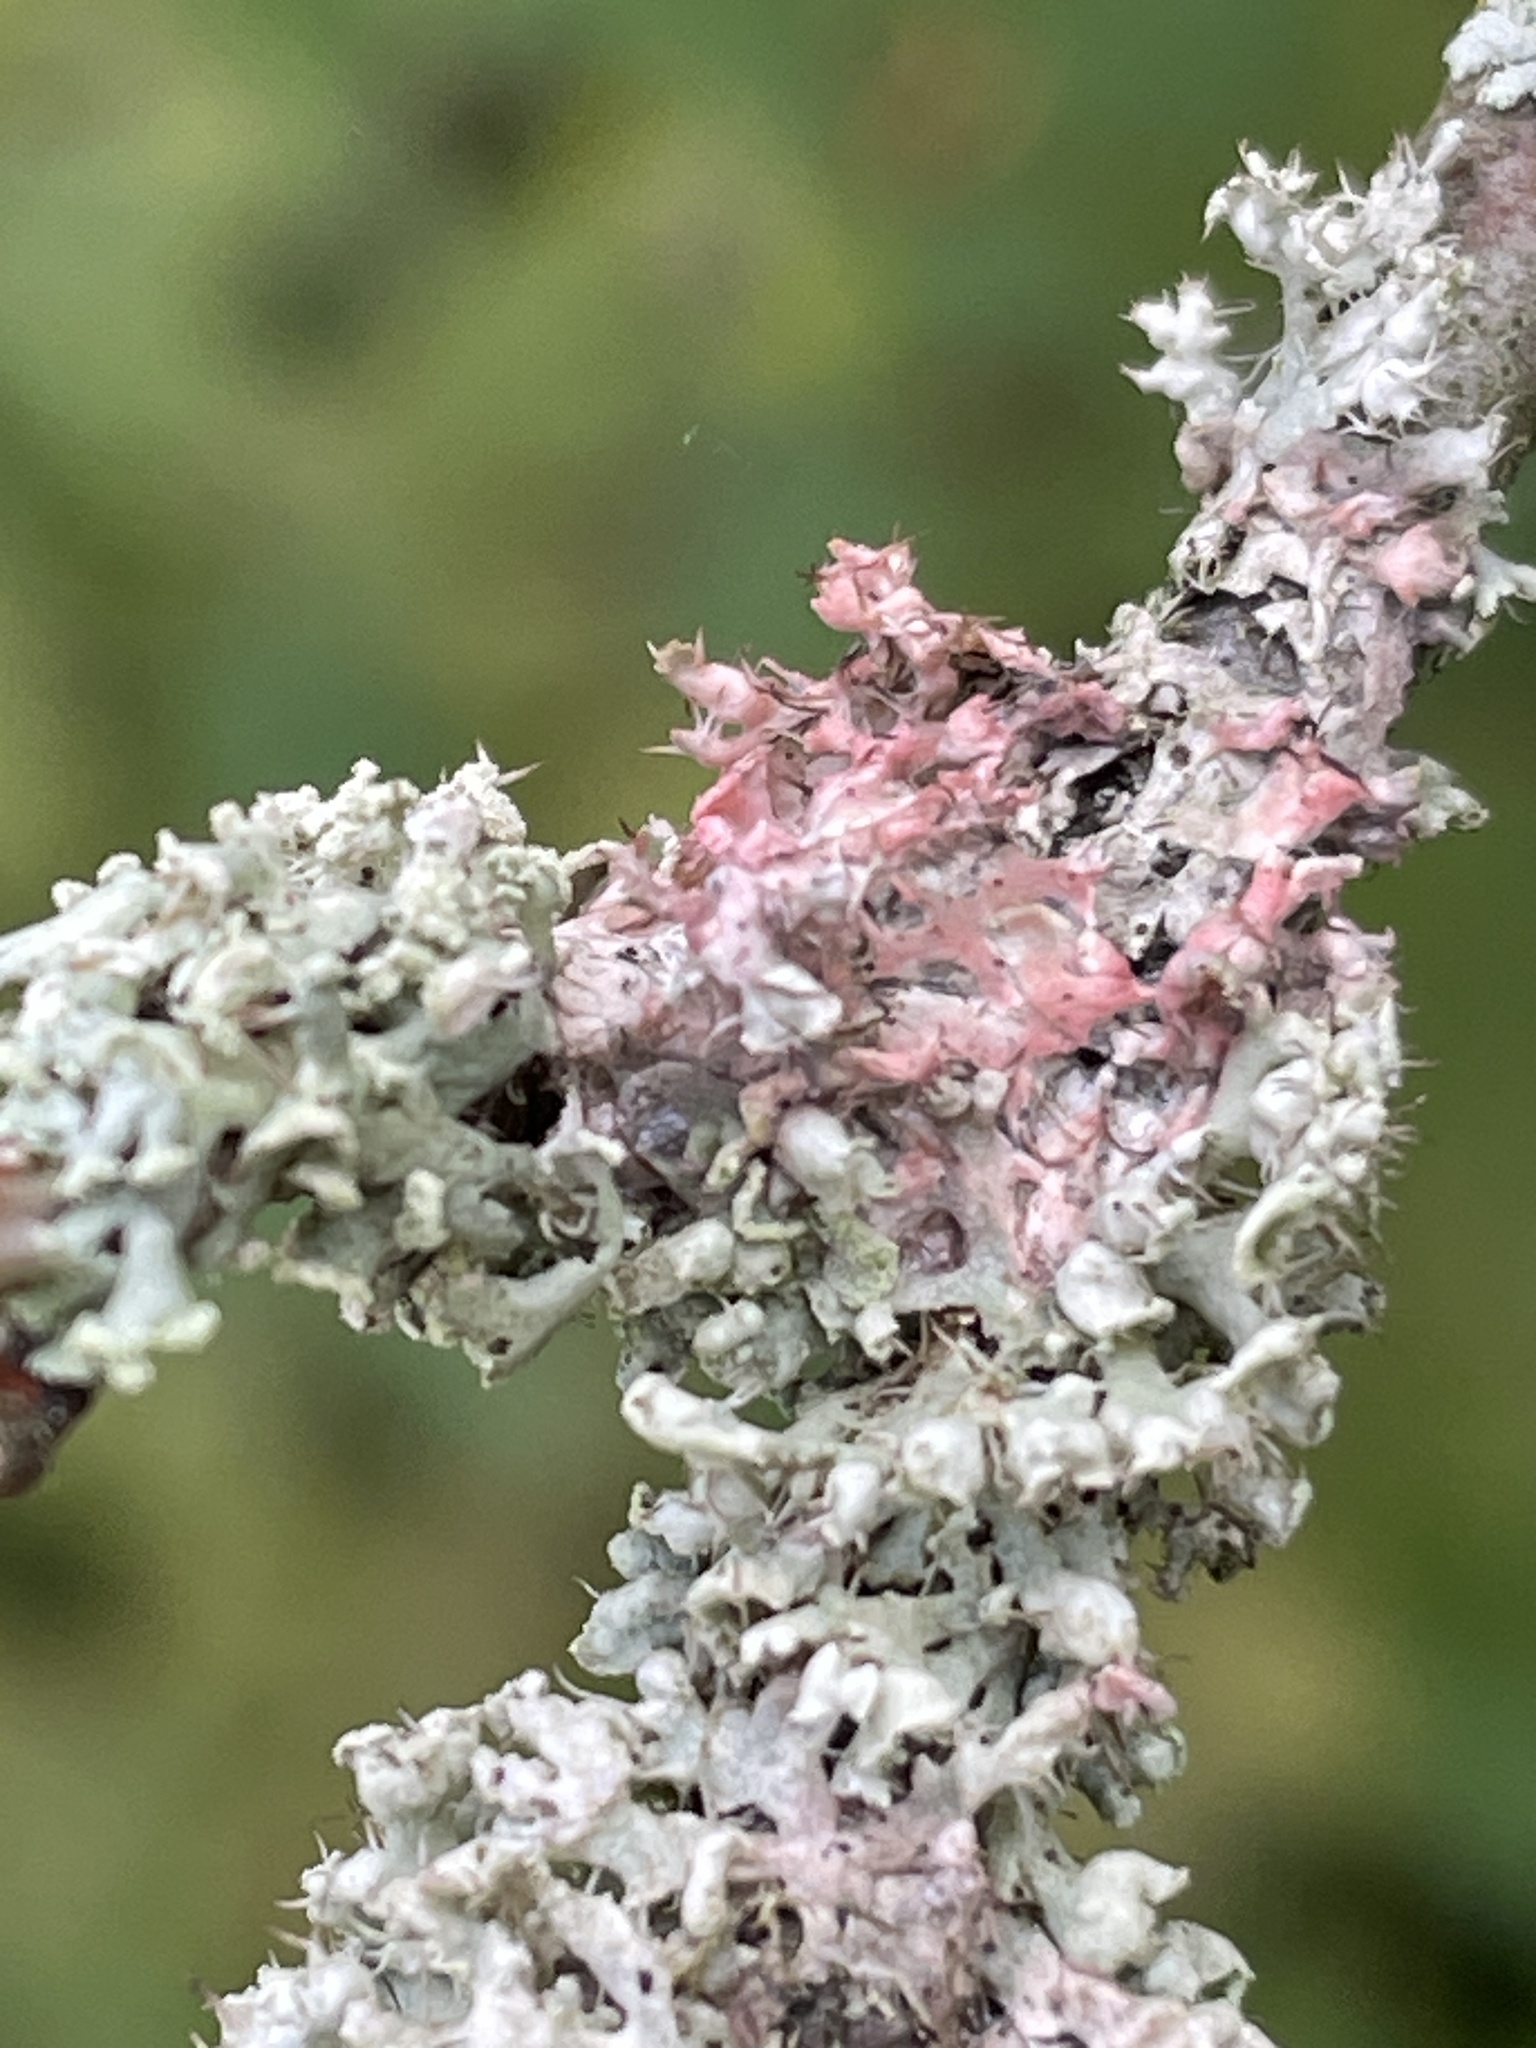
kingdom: Fungi
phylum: Basidiomycota
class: Agaricomycetes
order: Corticiales
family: Corticiaceae
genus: Laetisaria
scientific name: Laetisaria lichenicola
